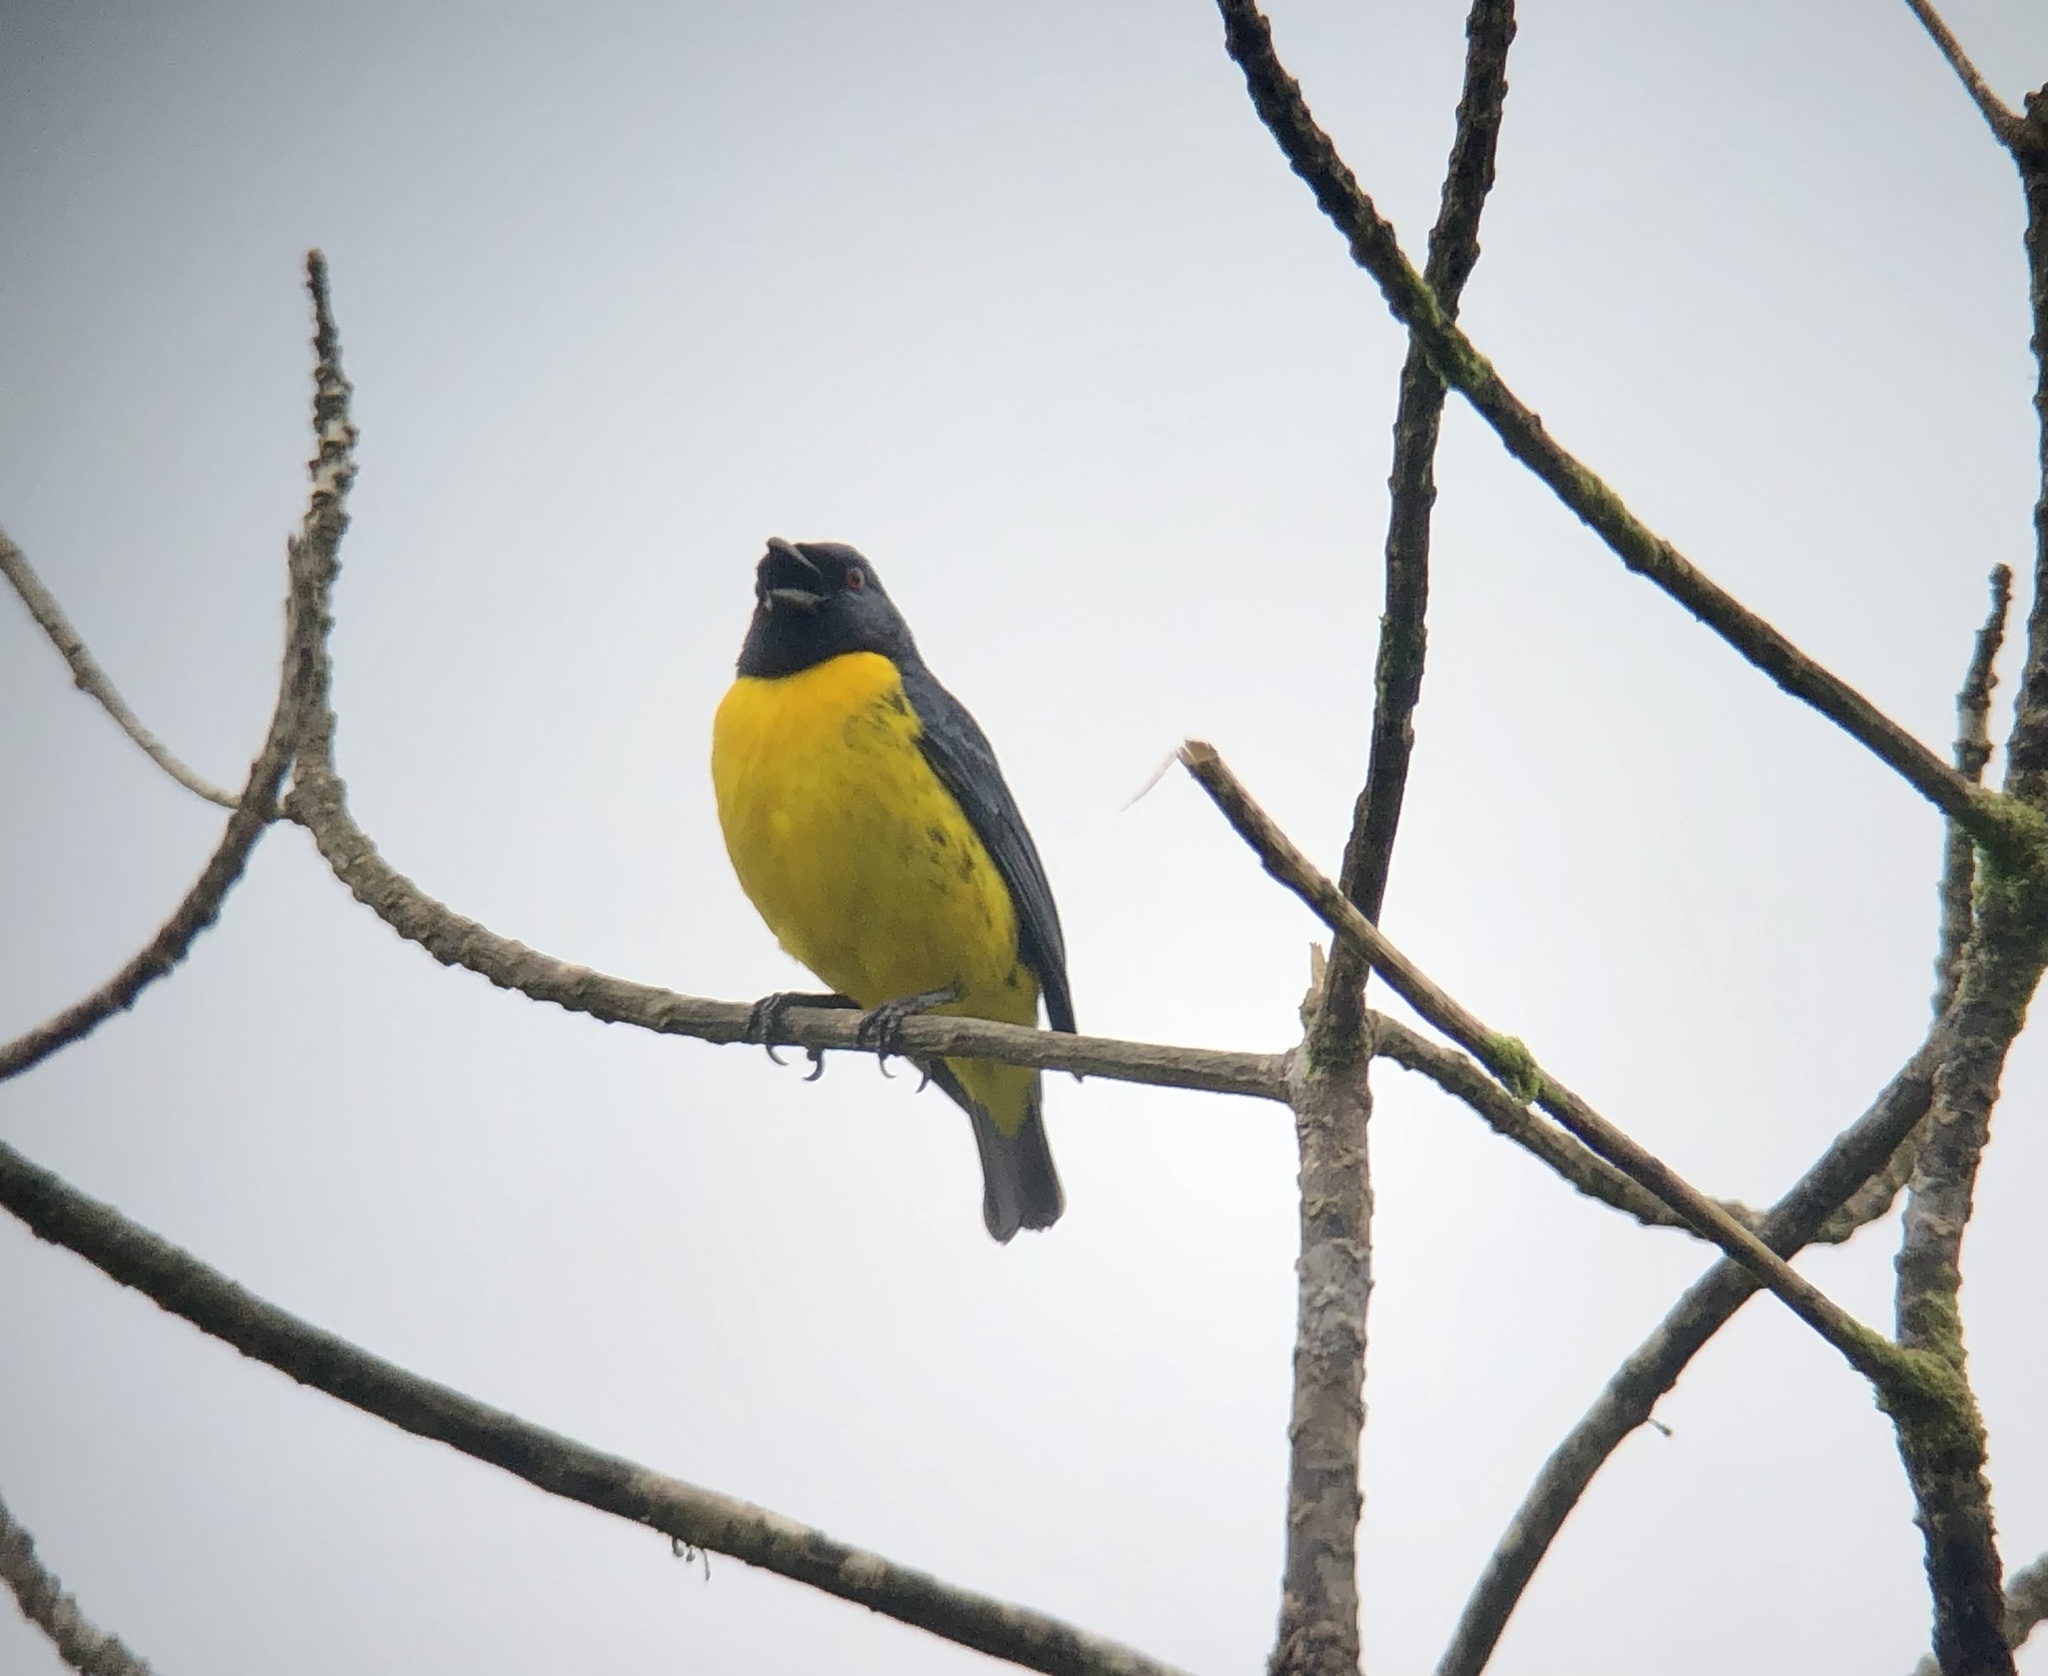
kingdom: Animalia
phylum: Chordata
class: Aves
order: Passeriformes
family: Thraupidae
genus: Bangsia
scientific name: Bangsia arcaei
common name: Blue-and-gold tanager
